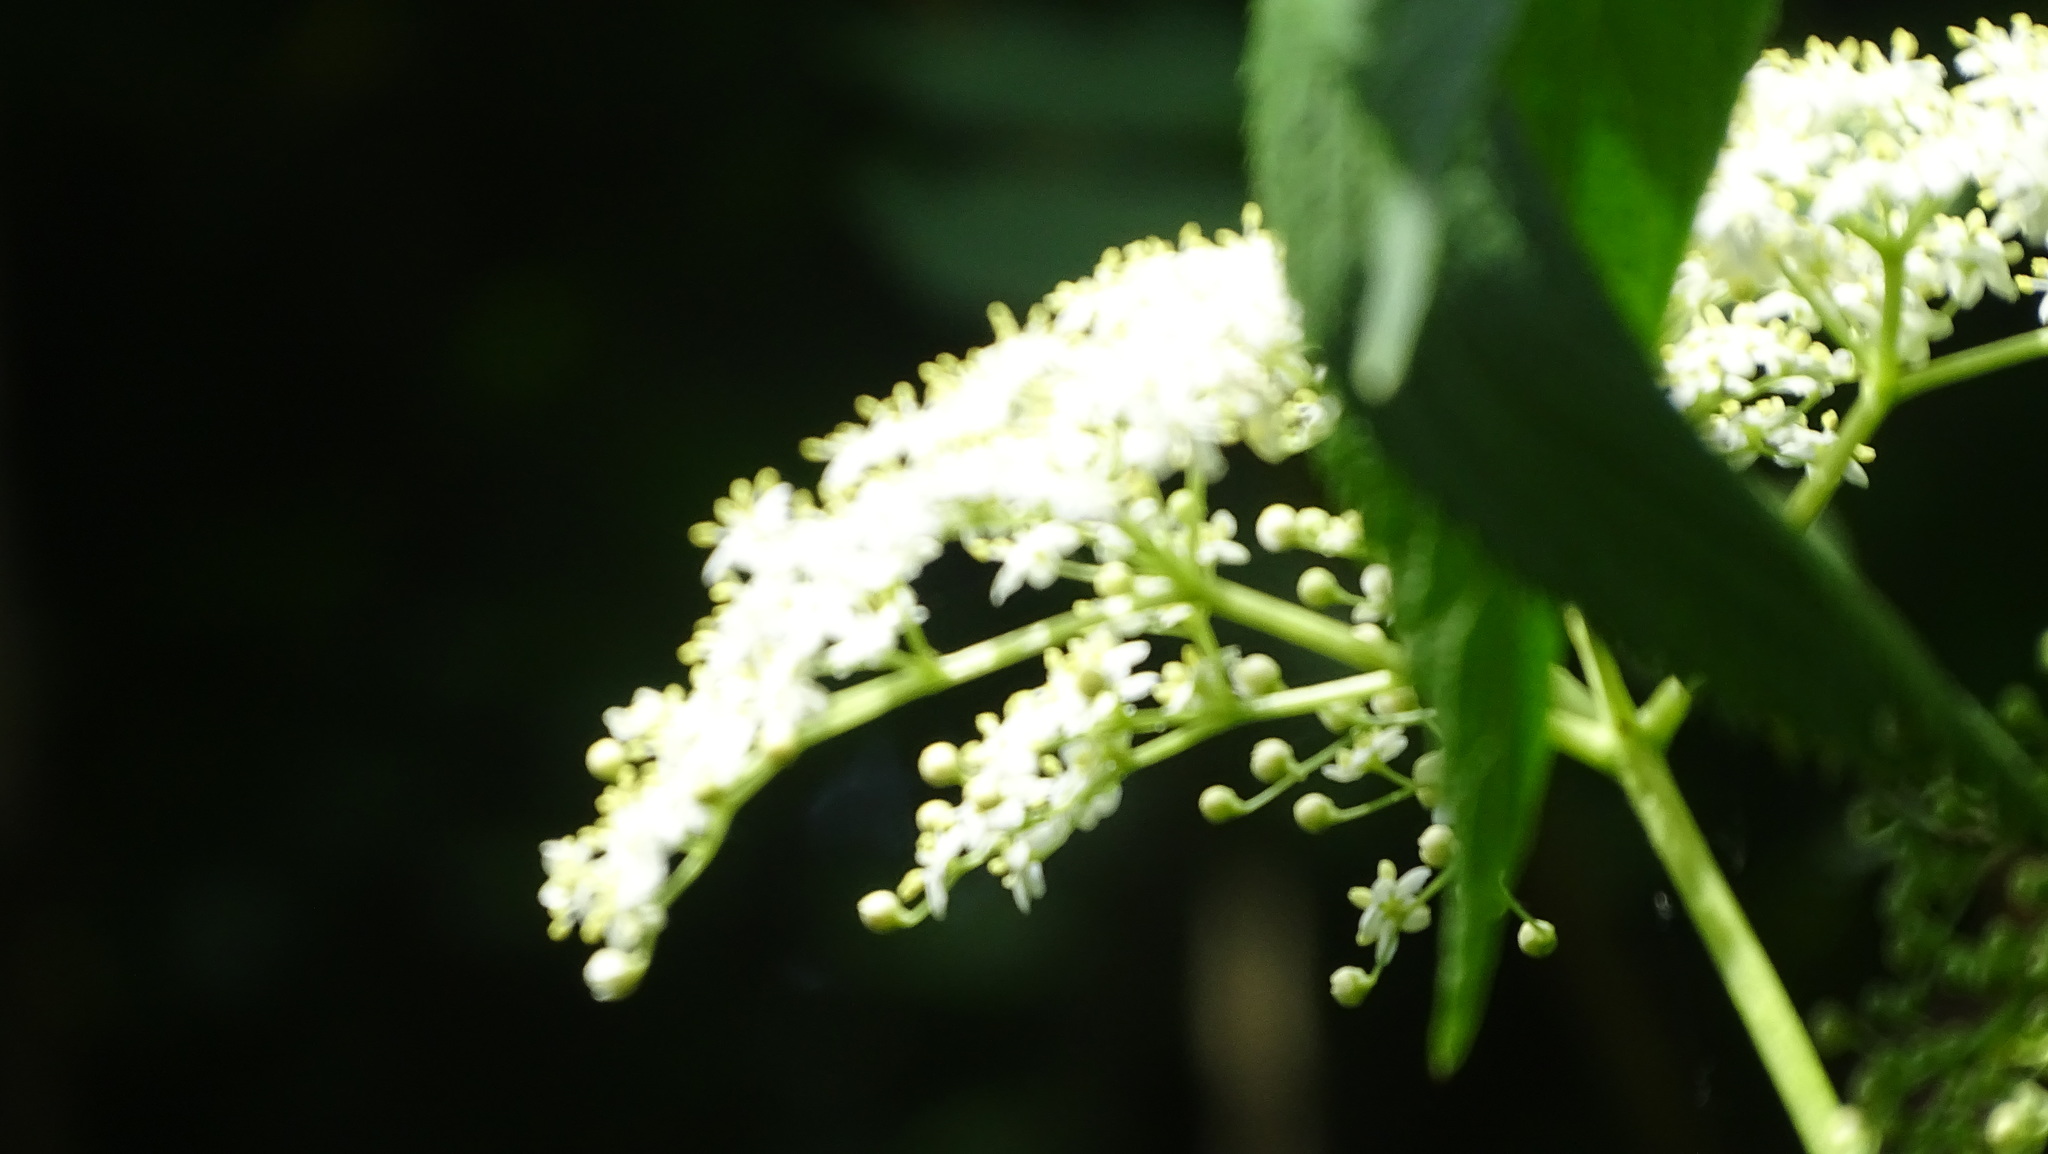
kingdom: Plantae
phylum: Tracheophyta
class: Magnoliopsida
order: Dipsacales
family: Viburnaceae
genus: Sambucus
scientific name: Sambucus nigra
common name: Elder
